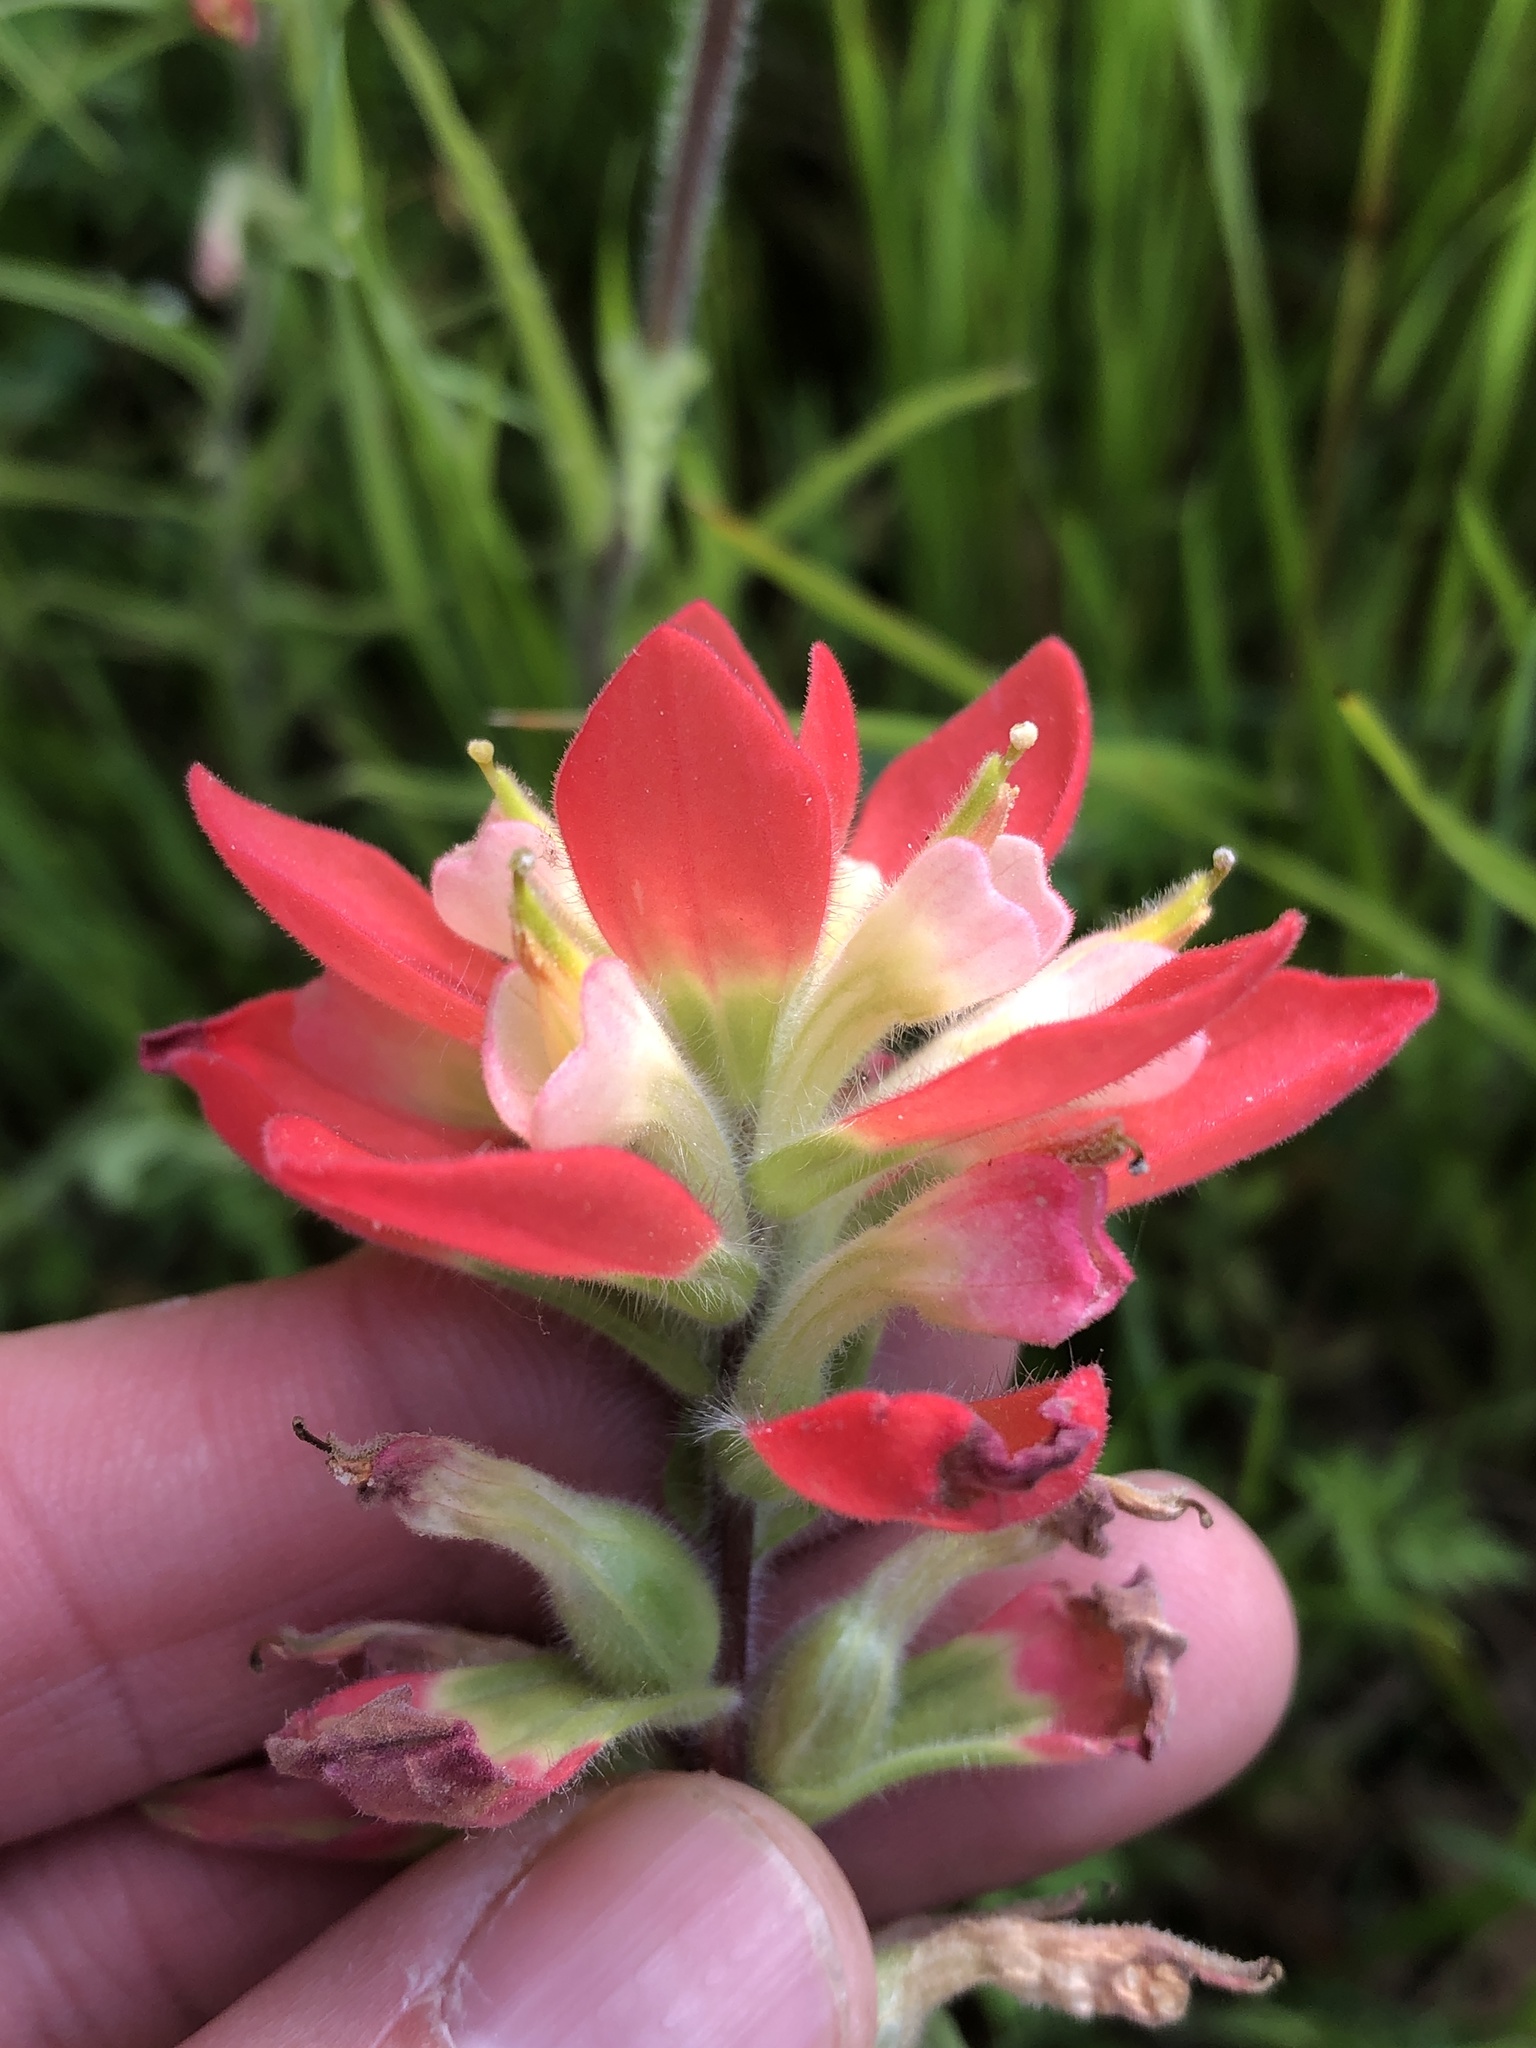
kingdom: Plantae
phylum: Tracheophyta
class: Magnoliopsida
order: Lamiales
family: Orobanchaceae
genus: Castilleja
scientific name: Castilleja indivisa
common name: Texas paintbrush
